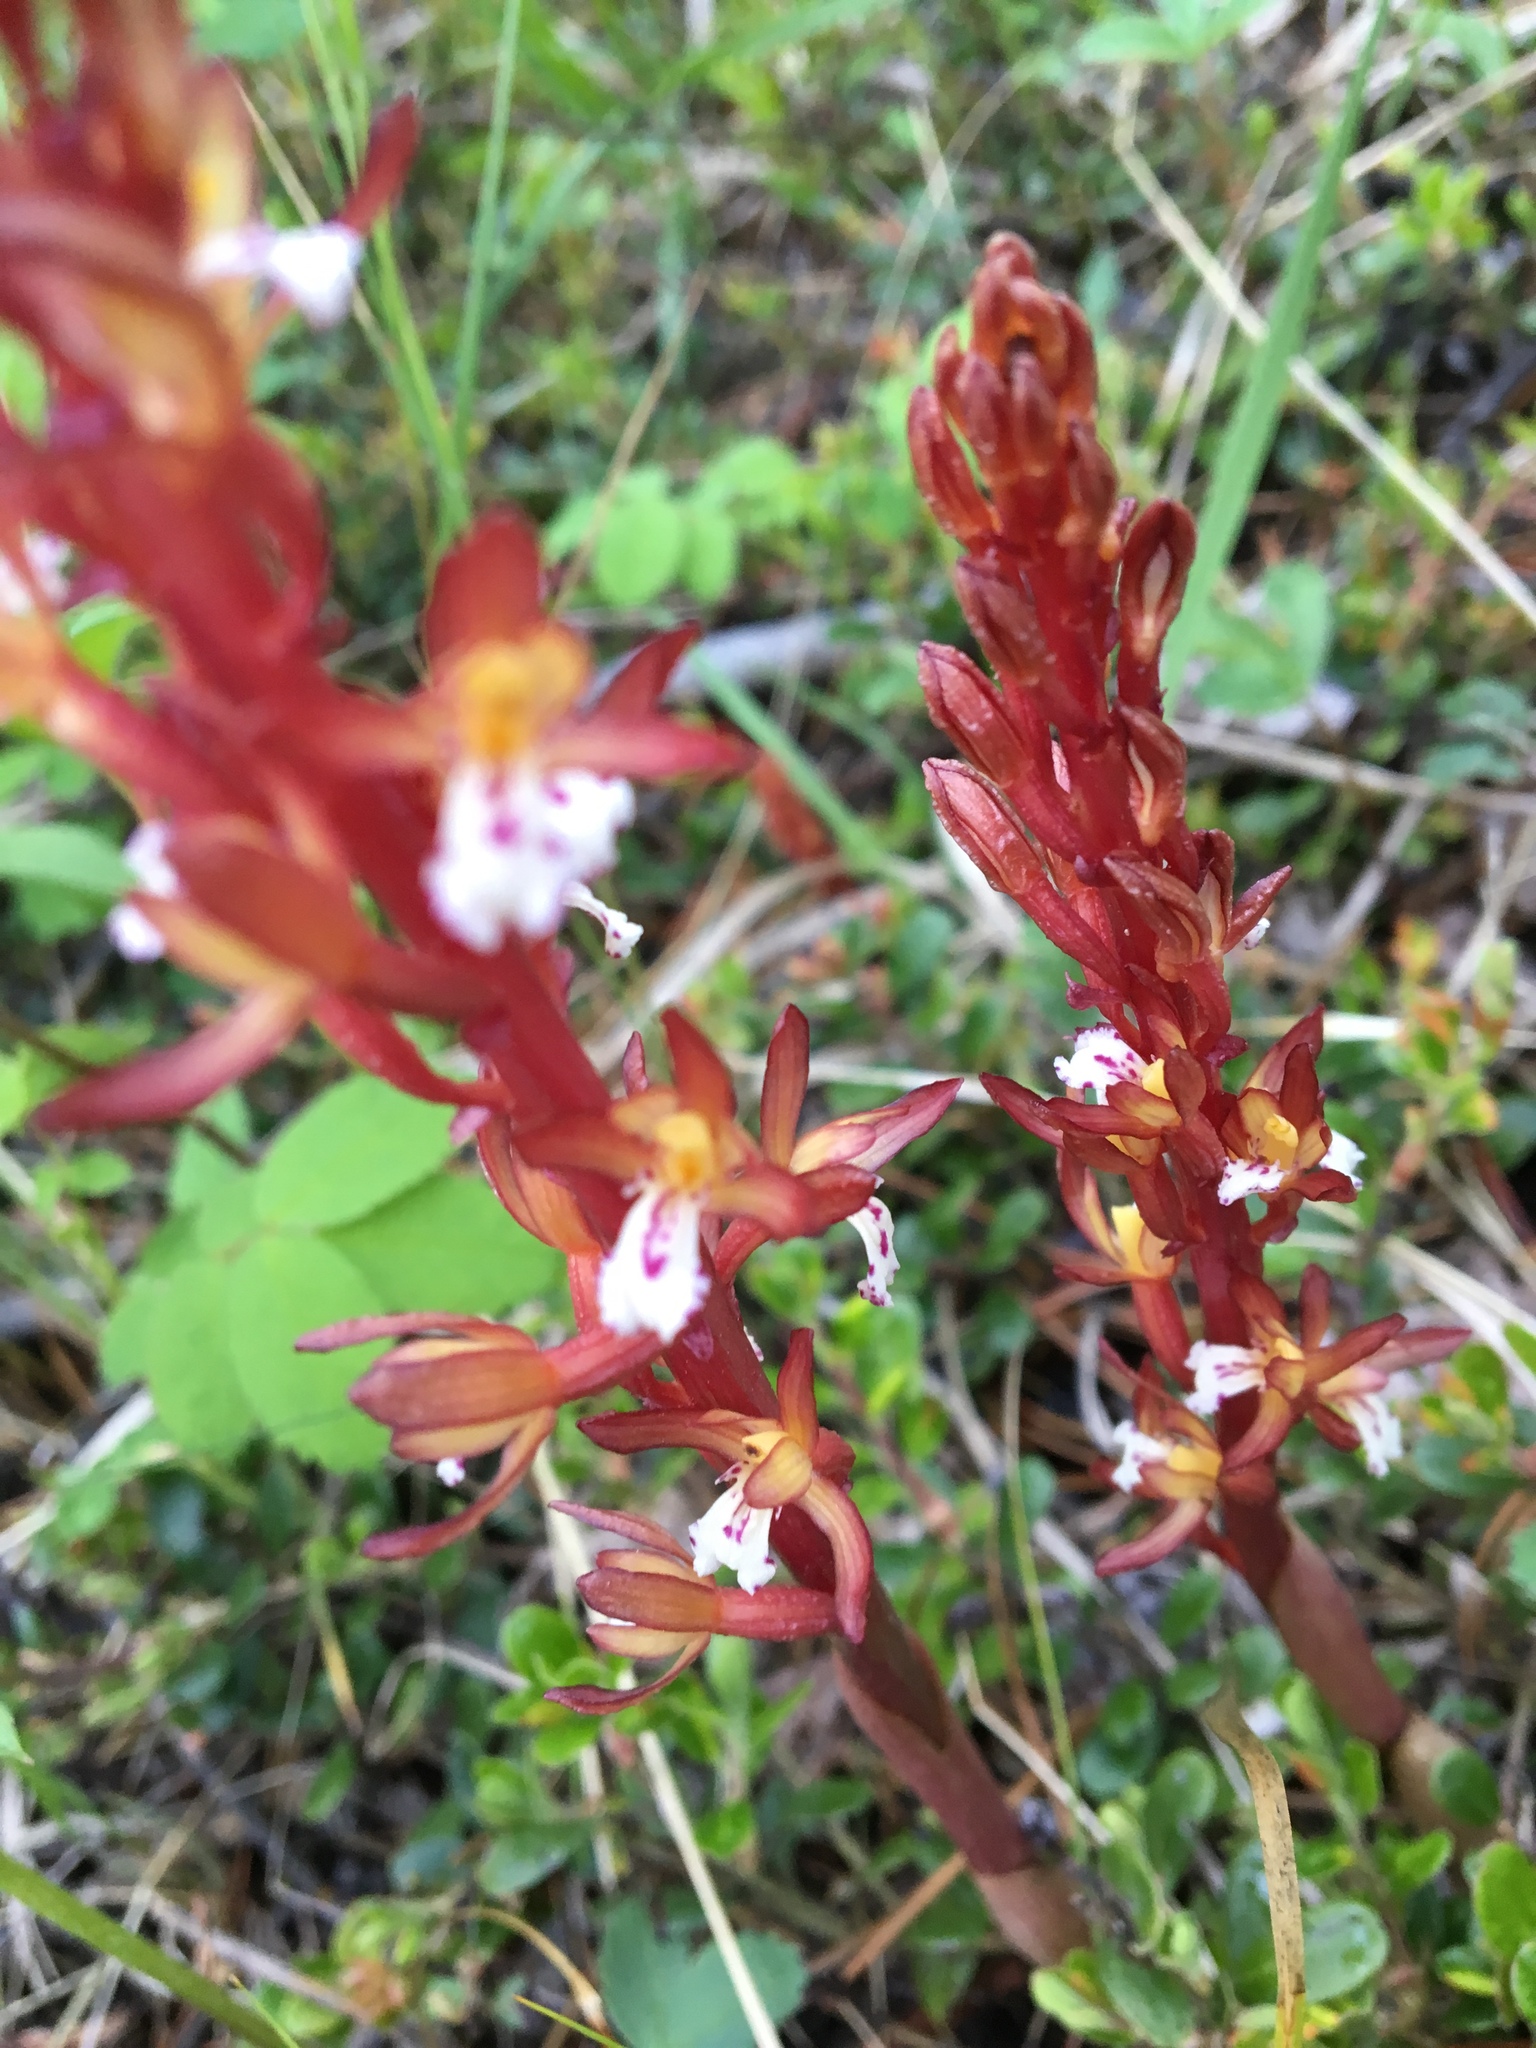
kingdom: Plantae
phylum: Tracheophyta
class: Liliopsida
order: Asparagales
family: Orchidaceae
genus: Corallorhiza
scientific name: Corallorhiza maculata
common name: Spotted coralroot
